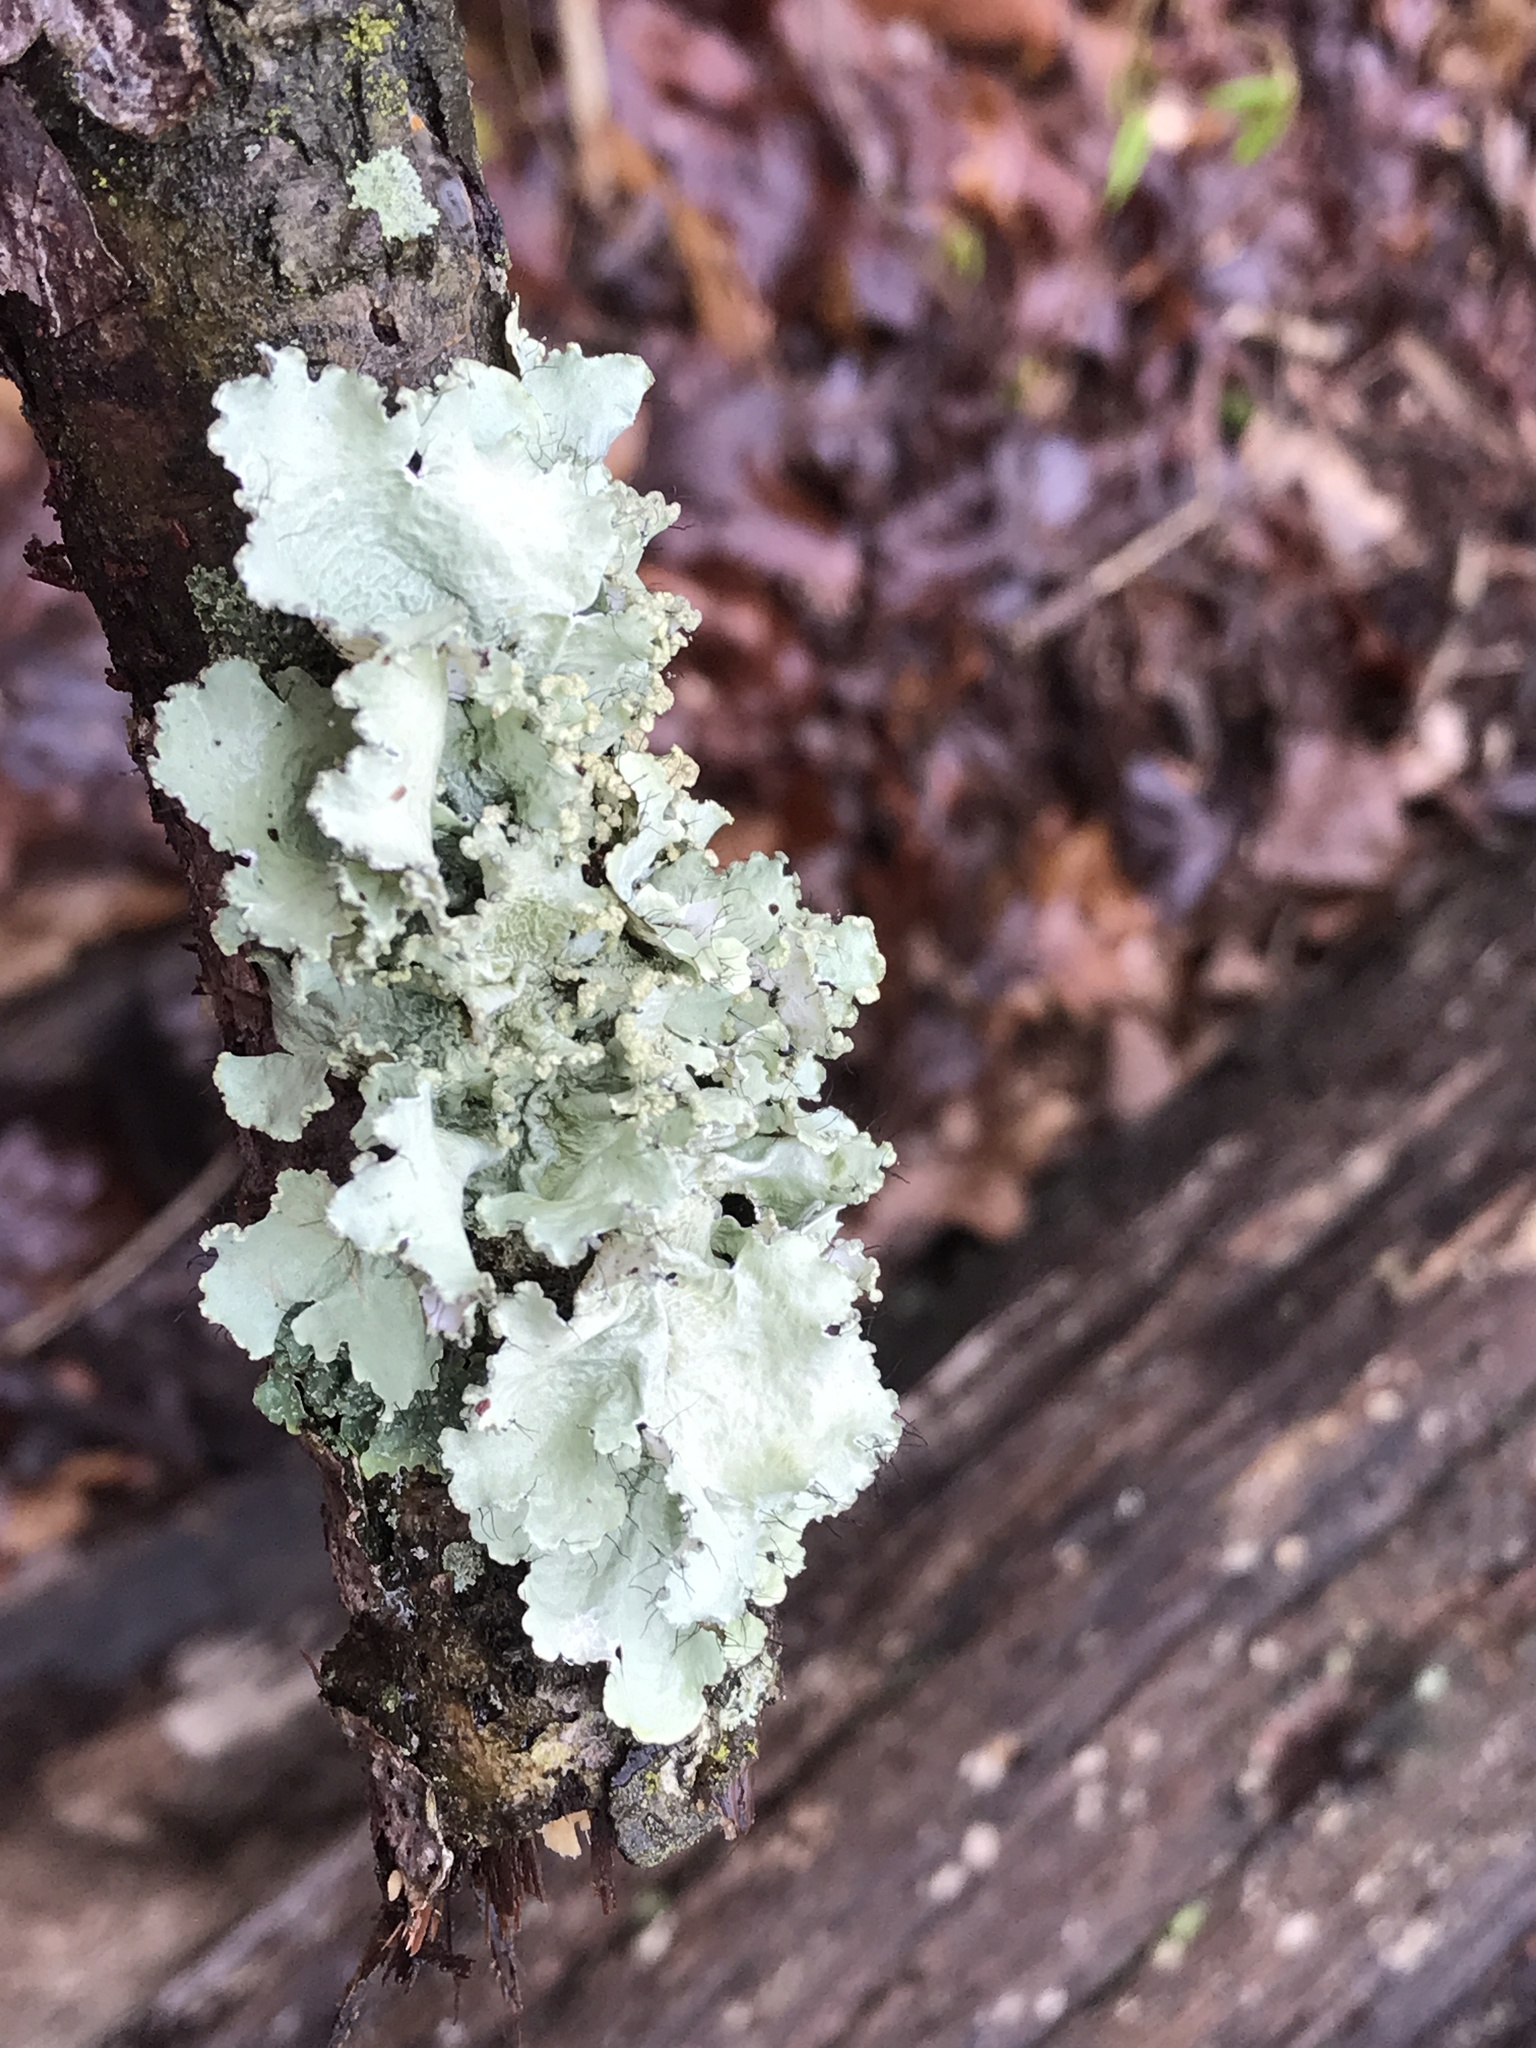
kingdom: Fungi
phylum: Ascomycota
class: Lecanoromycetes
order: Lecanorales
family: Parmeliaceae
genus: Parmotrema
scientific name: Parmotrema hypotropum
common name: Powdered ruffle lichen
